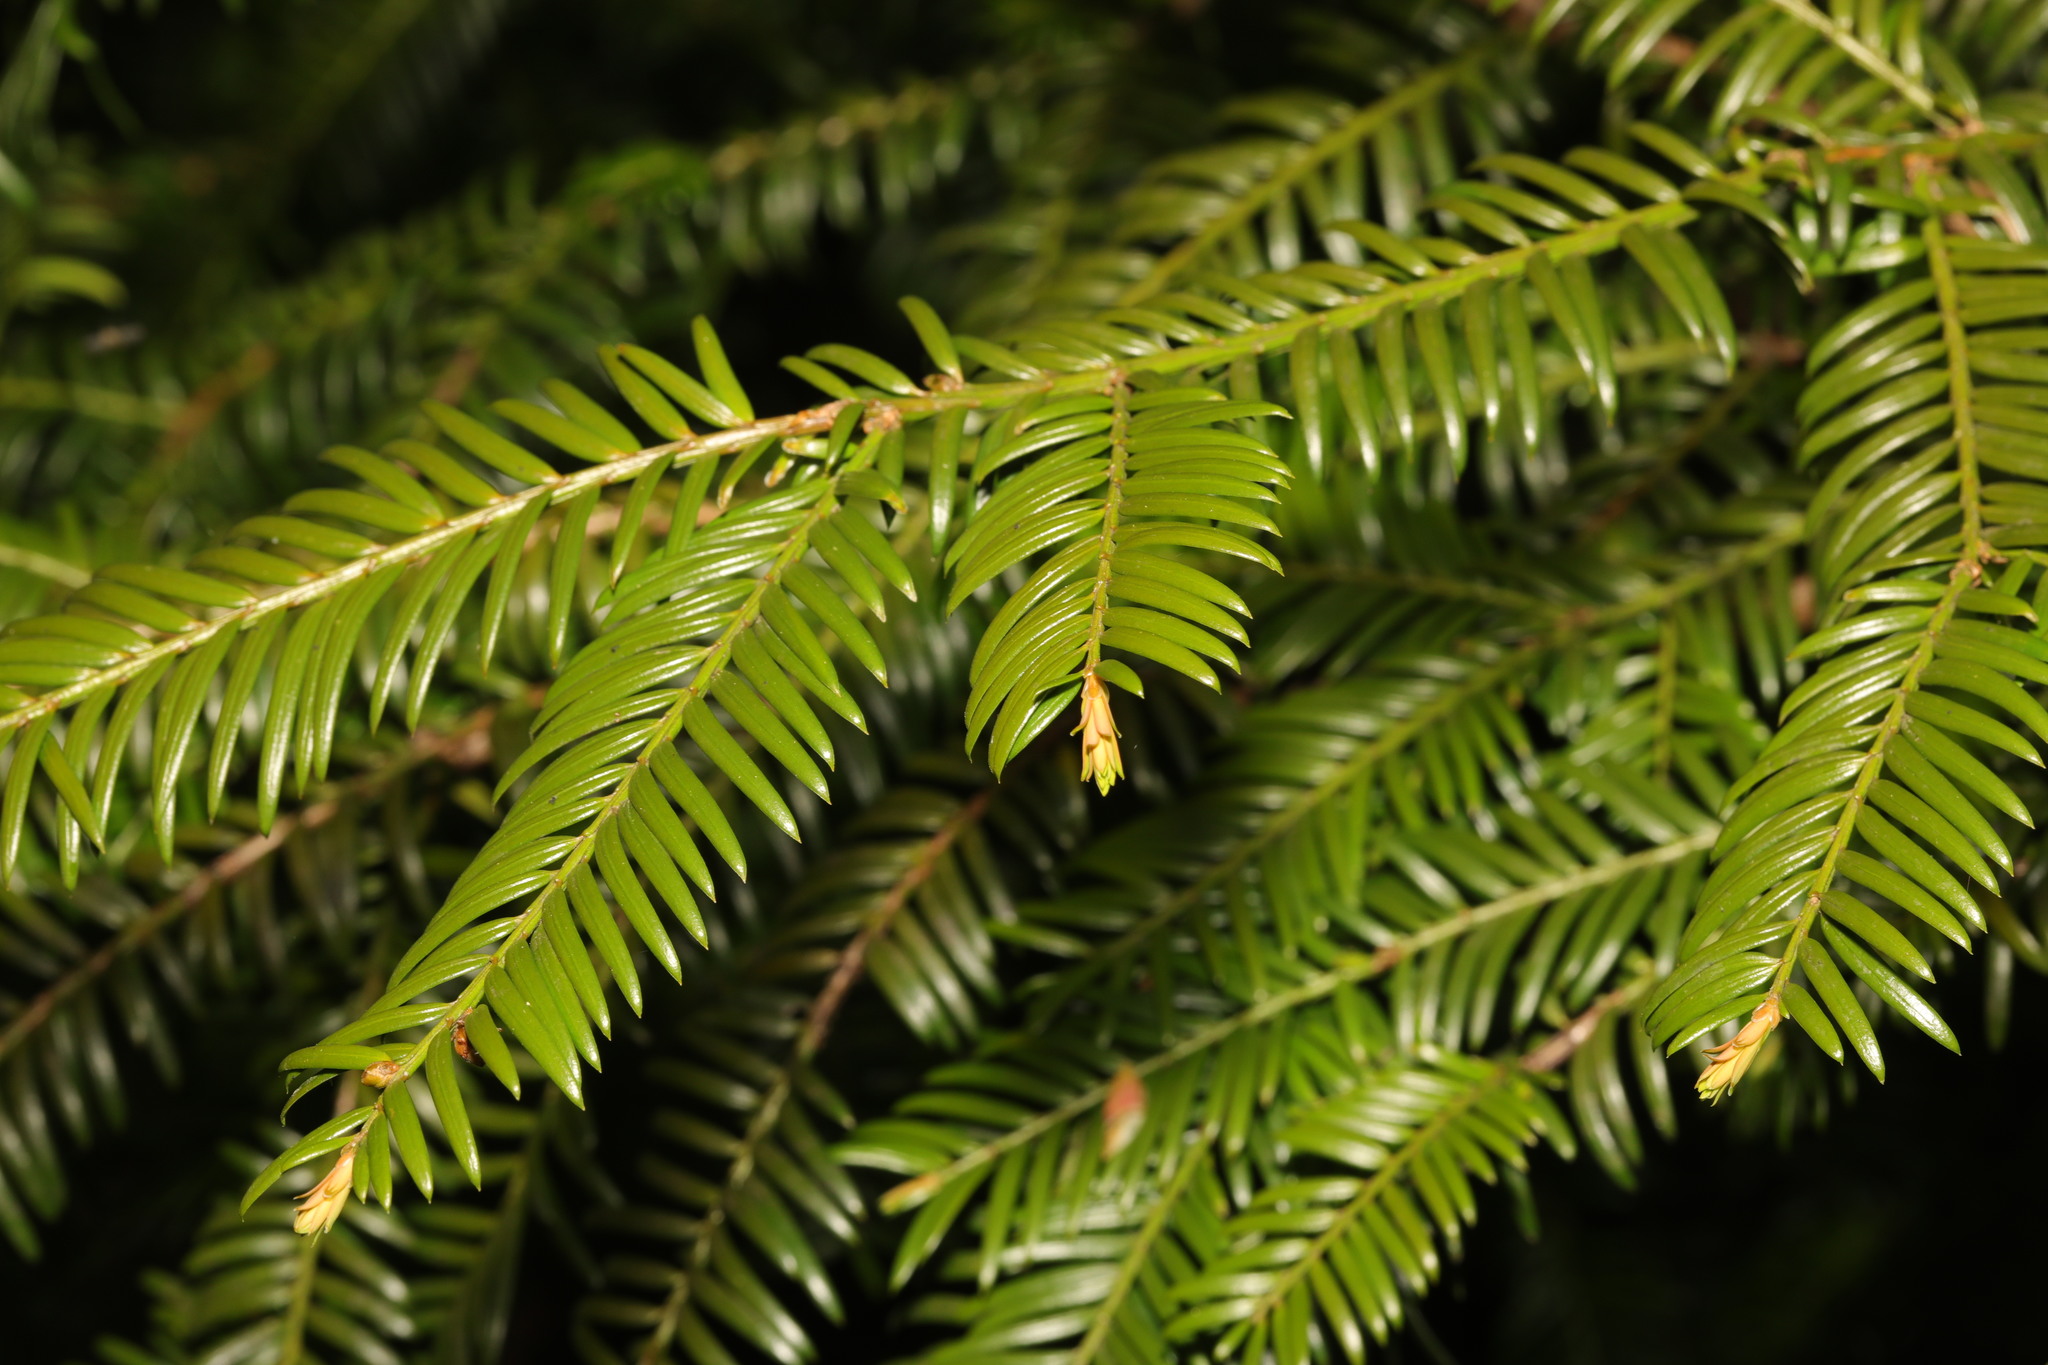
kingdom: Plantae
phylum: Tracheophyta
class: Pinopsida
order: Pinales
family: Taxaceae
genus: Taxus
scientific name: Taxus baccata
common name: Yew
